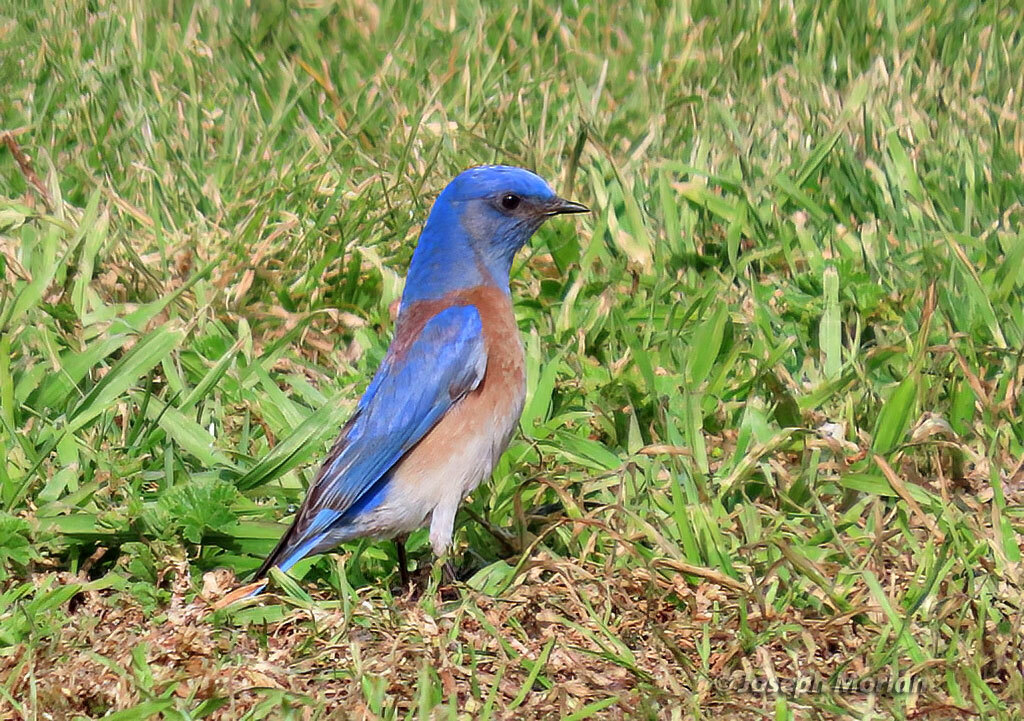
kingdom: Animalia
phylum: Chordata
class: Aves
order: Passeriformes
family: Turdidae
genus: Sialia
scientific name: Sialia mexicana
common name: Western bluebird
